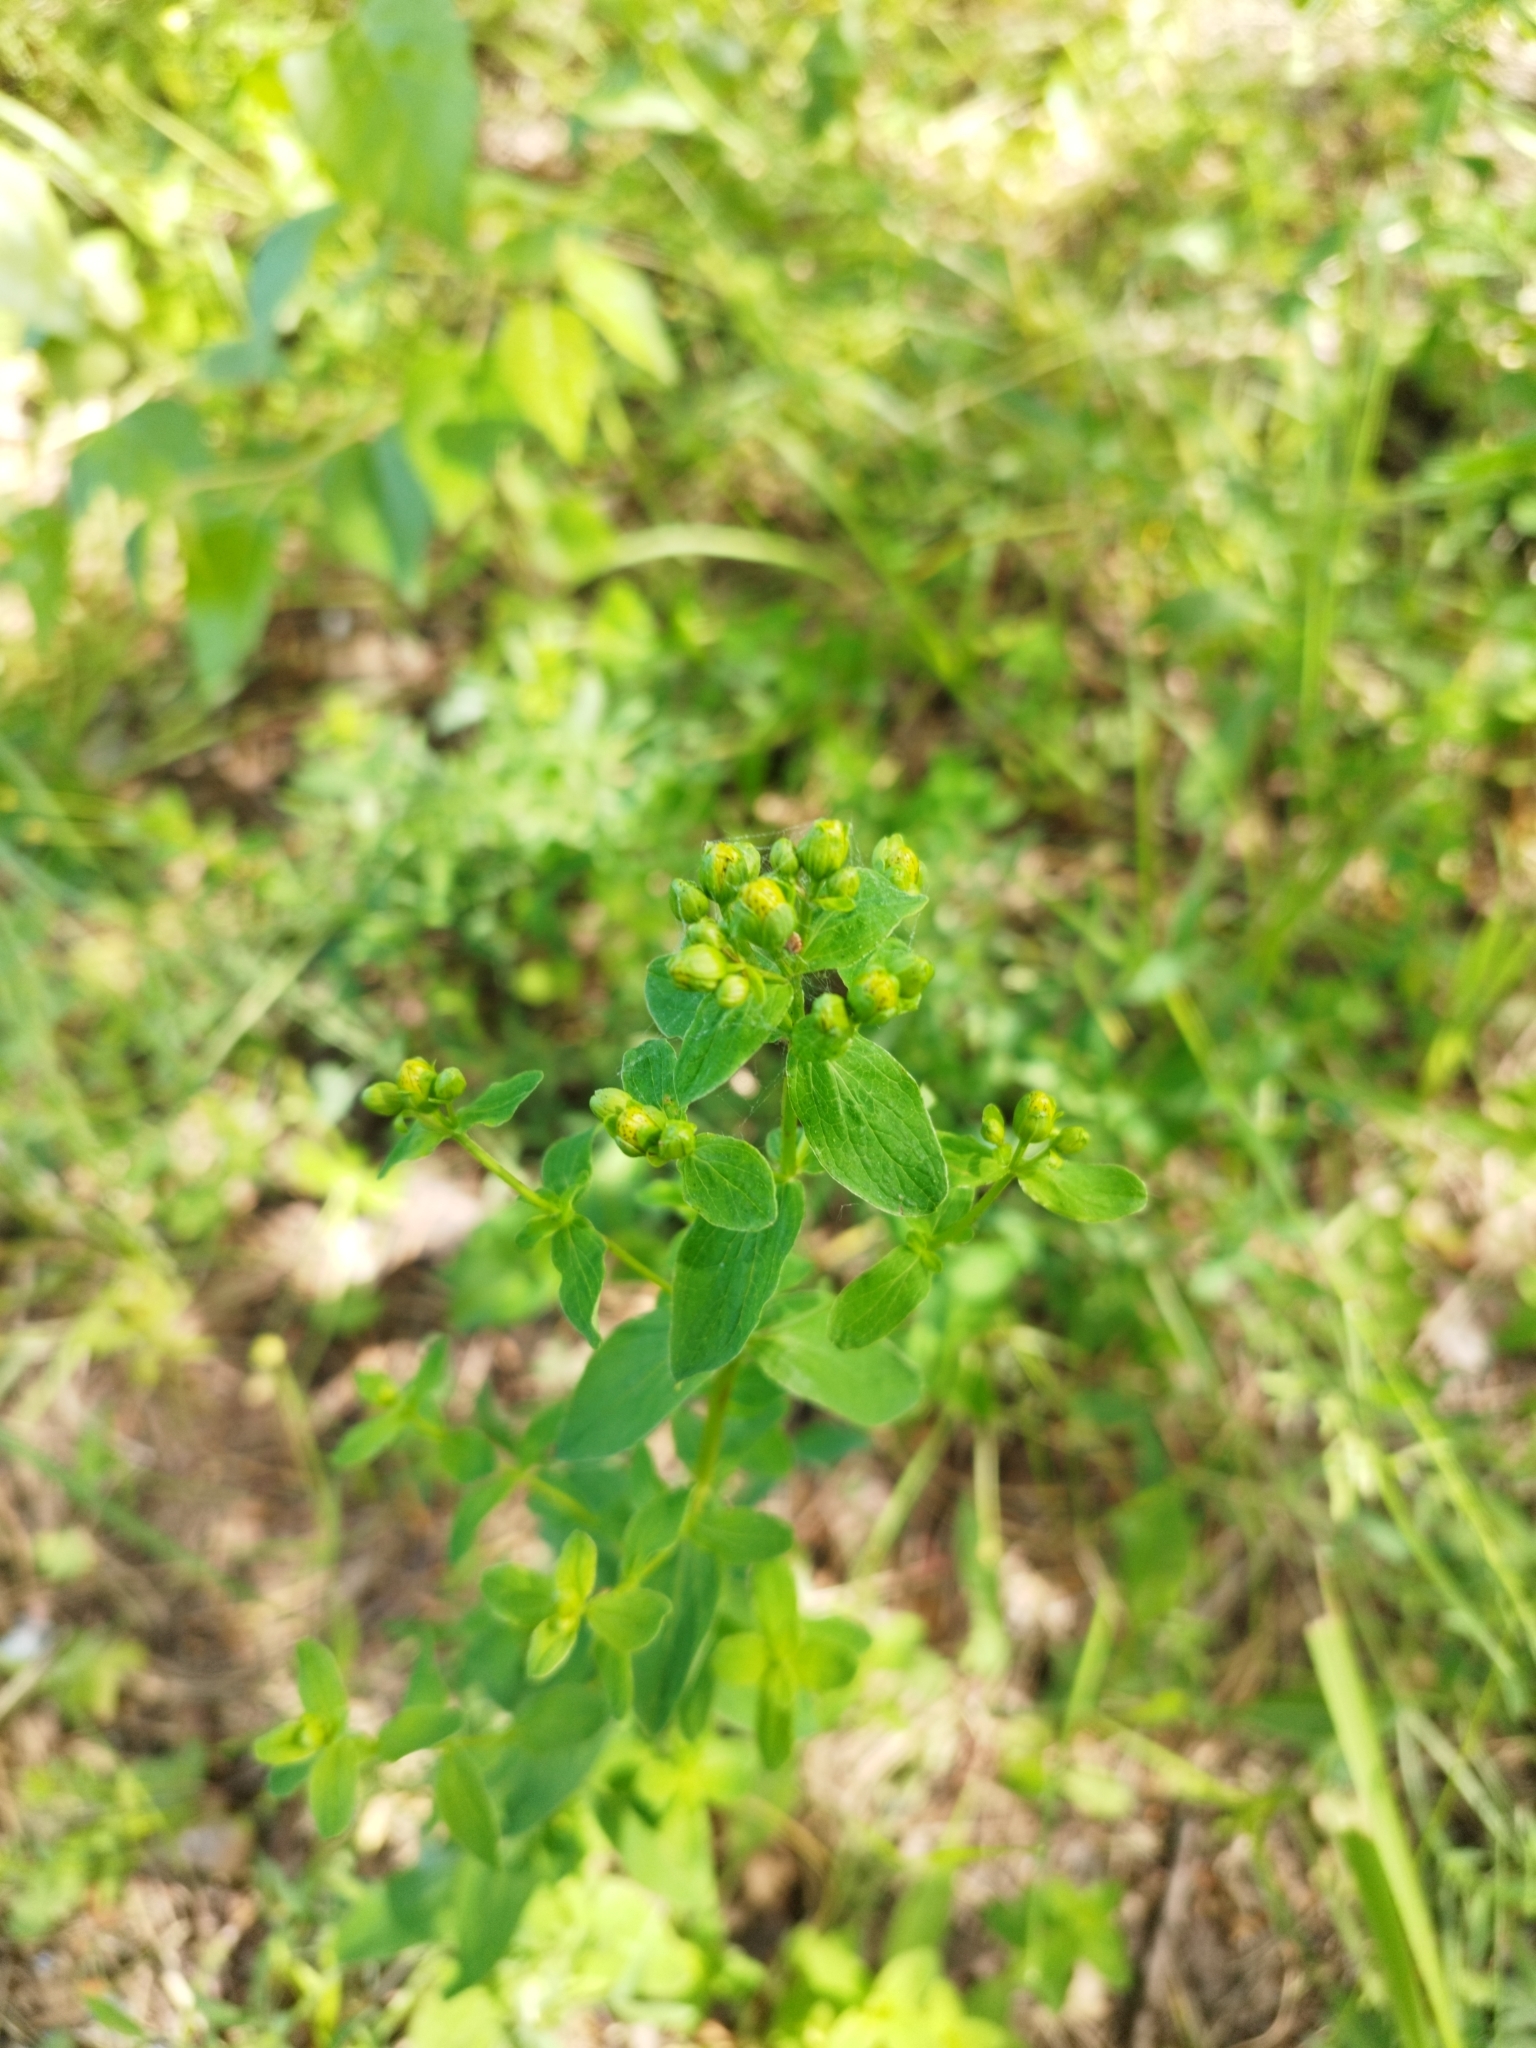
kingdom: Plantae
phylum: Tracheophyta
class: Magnoliopsida
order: Malpighiales
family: Hypericaceae
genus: Hypericum
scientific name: Hypericum maculatum
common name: Imperforate st. john's-wort
